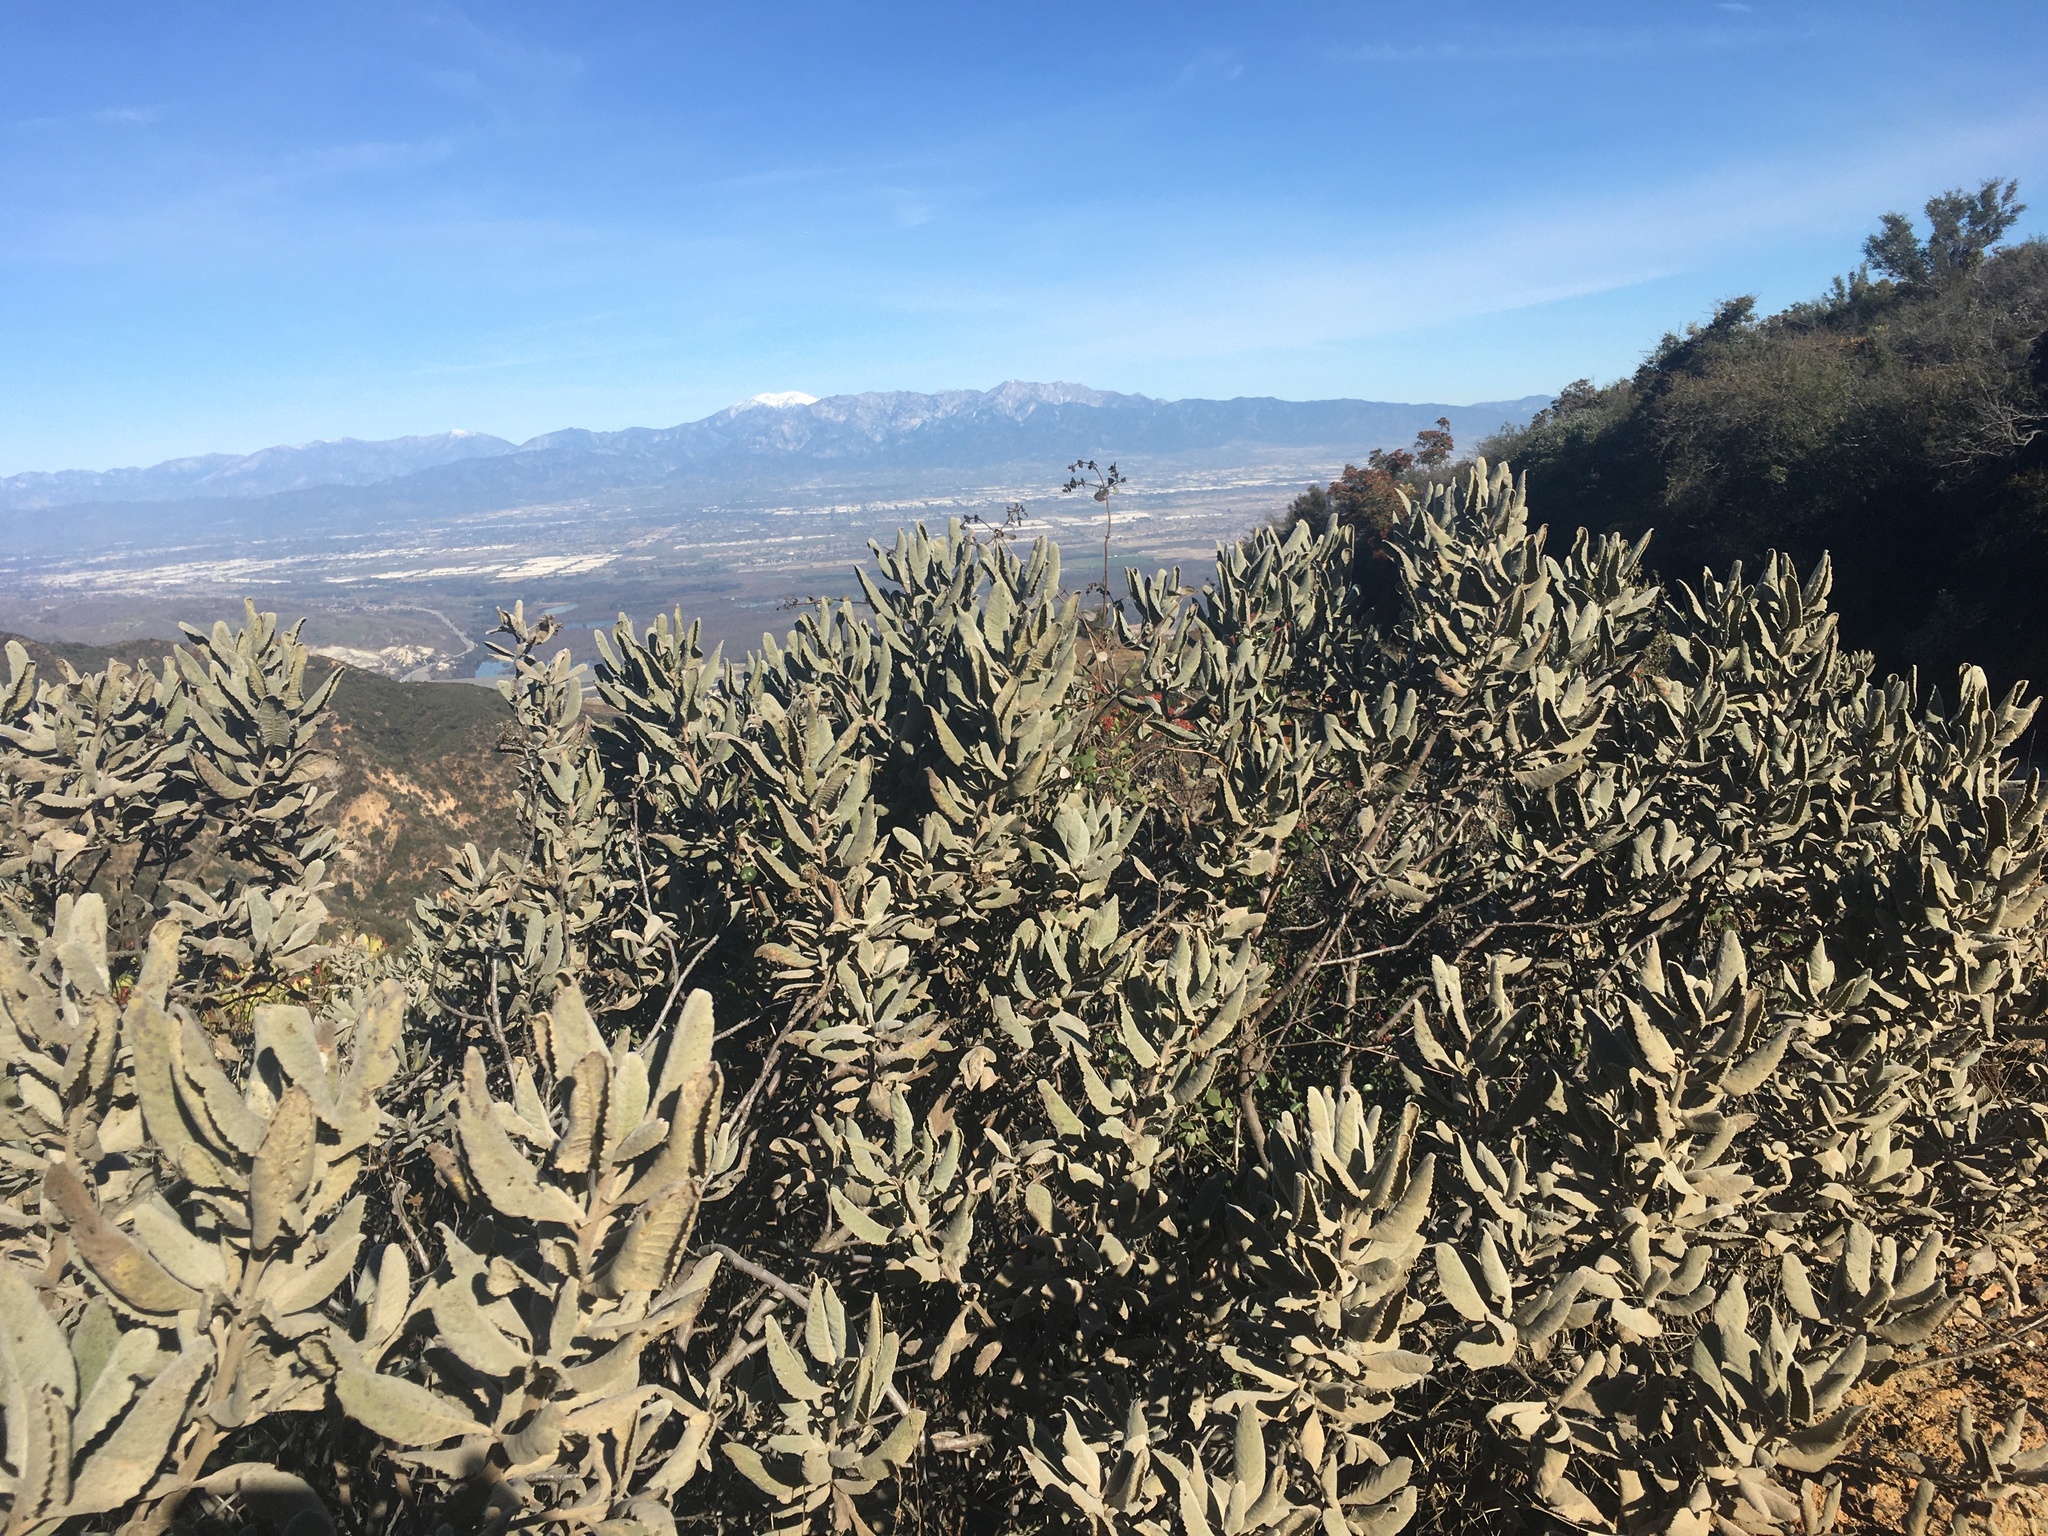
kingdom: Plantae
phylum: Tracheophyta
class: Magnoliopsida
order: Boraginales
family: Namaceae
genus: Eriodictyon
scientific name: Eriodictyon crassifolium
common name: Thick-leaf yerba-santa
